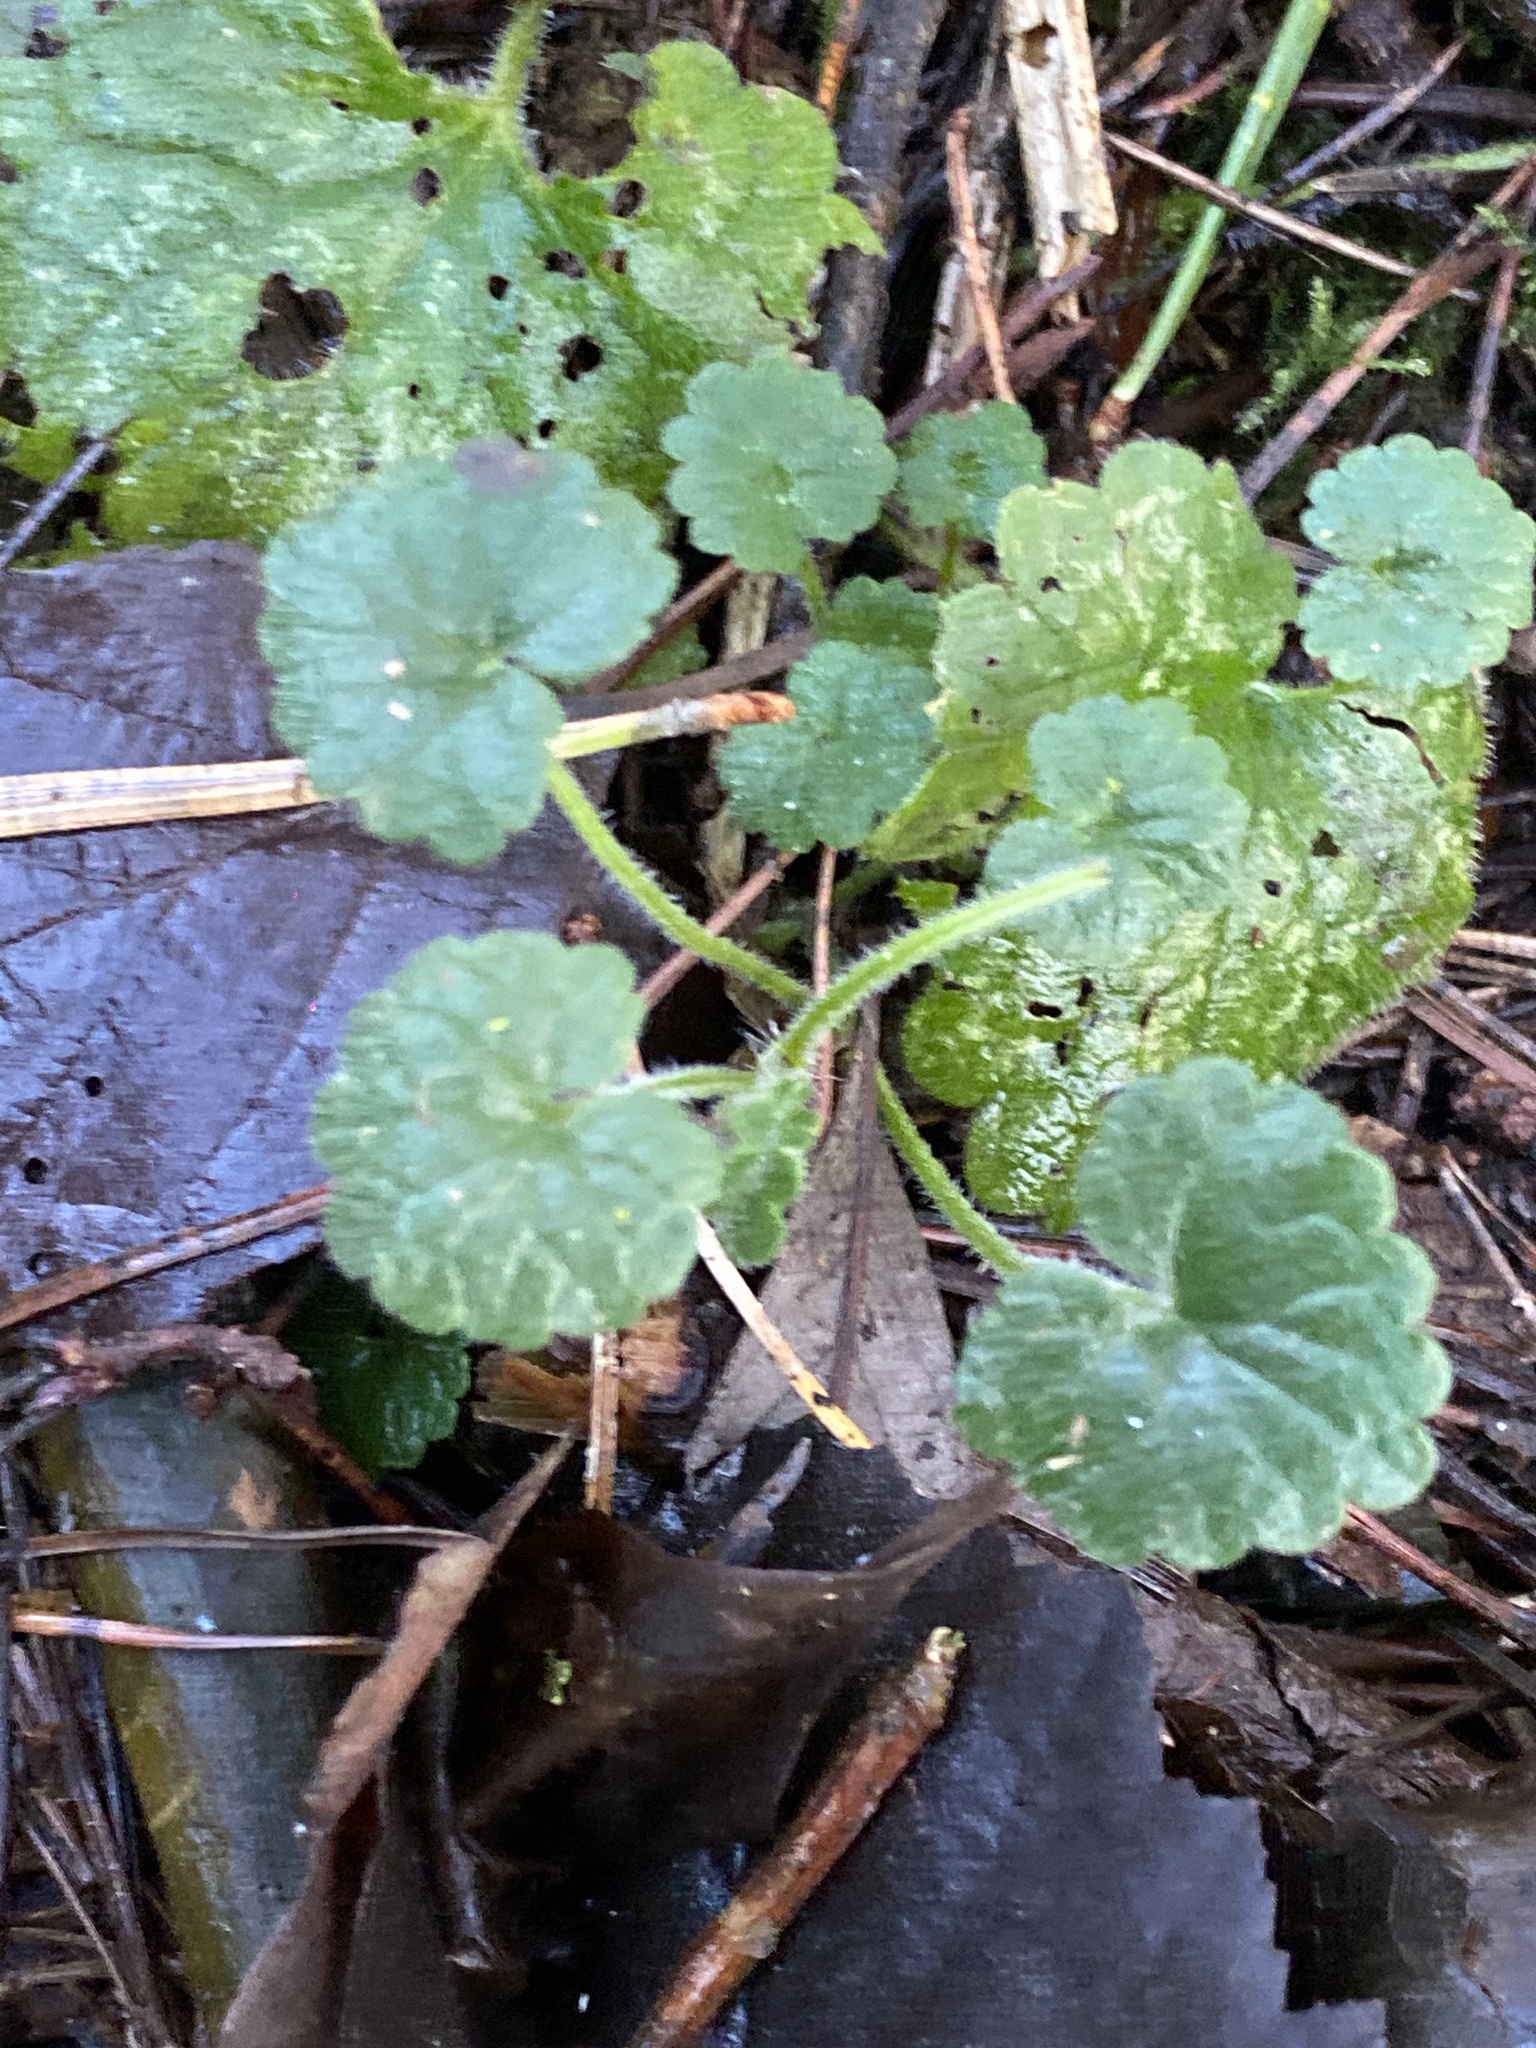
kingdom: Plantae
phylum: Tracheophyta
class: Magnoliopsida
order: Lamiales
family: Lamiaceae
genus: Glechoma
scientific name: Glechoma hederacea
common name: Ground ivy
